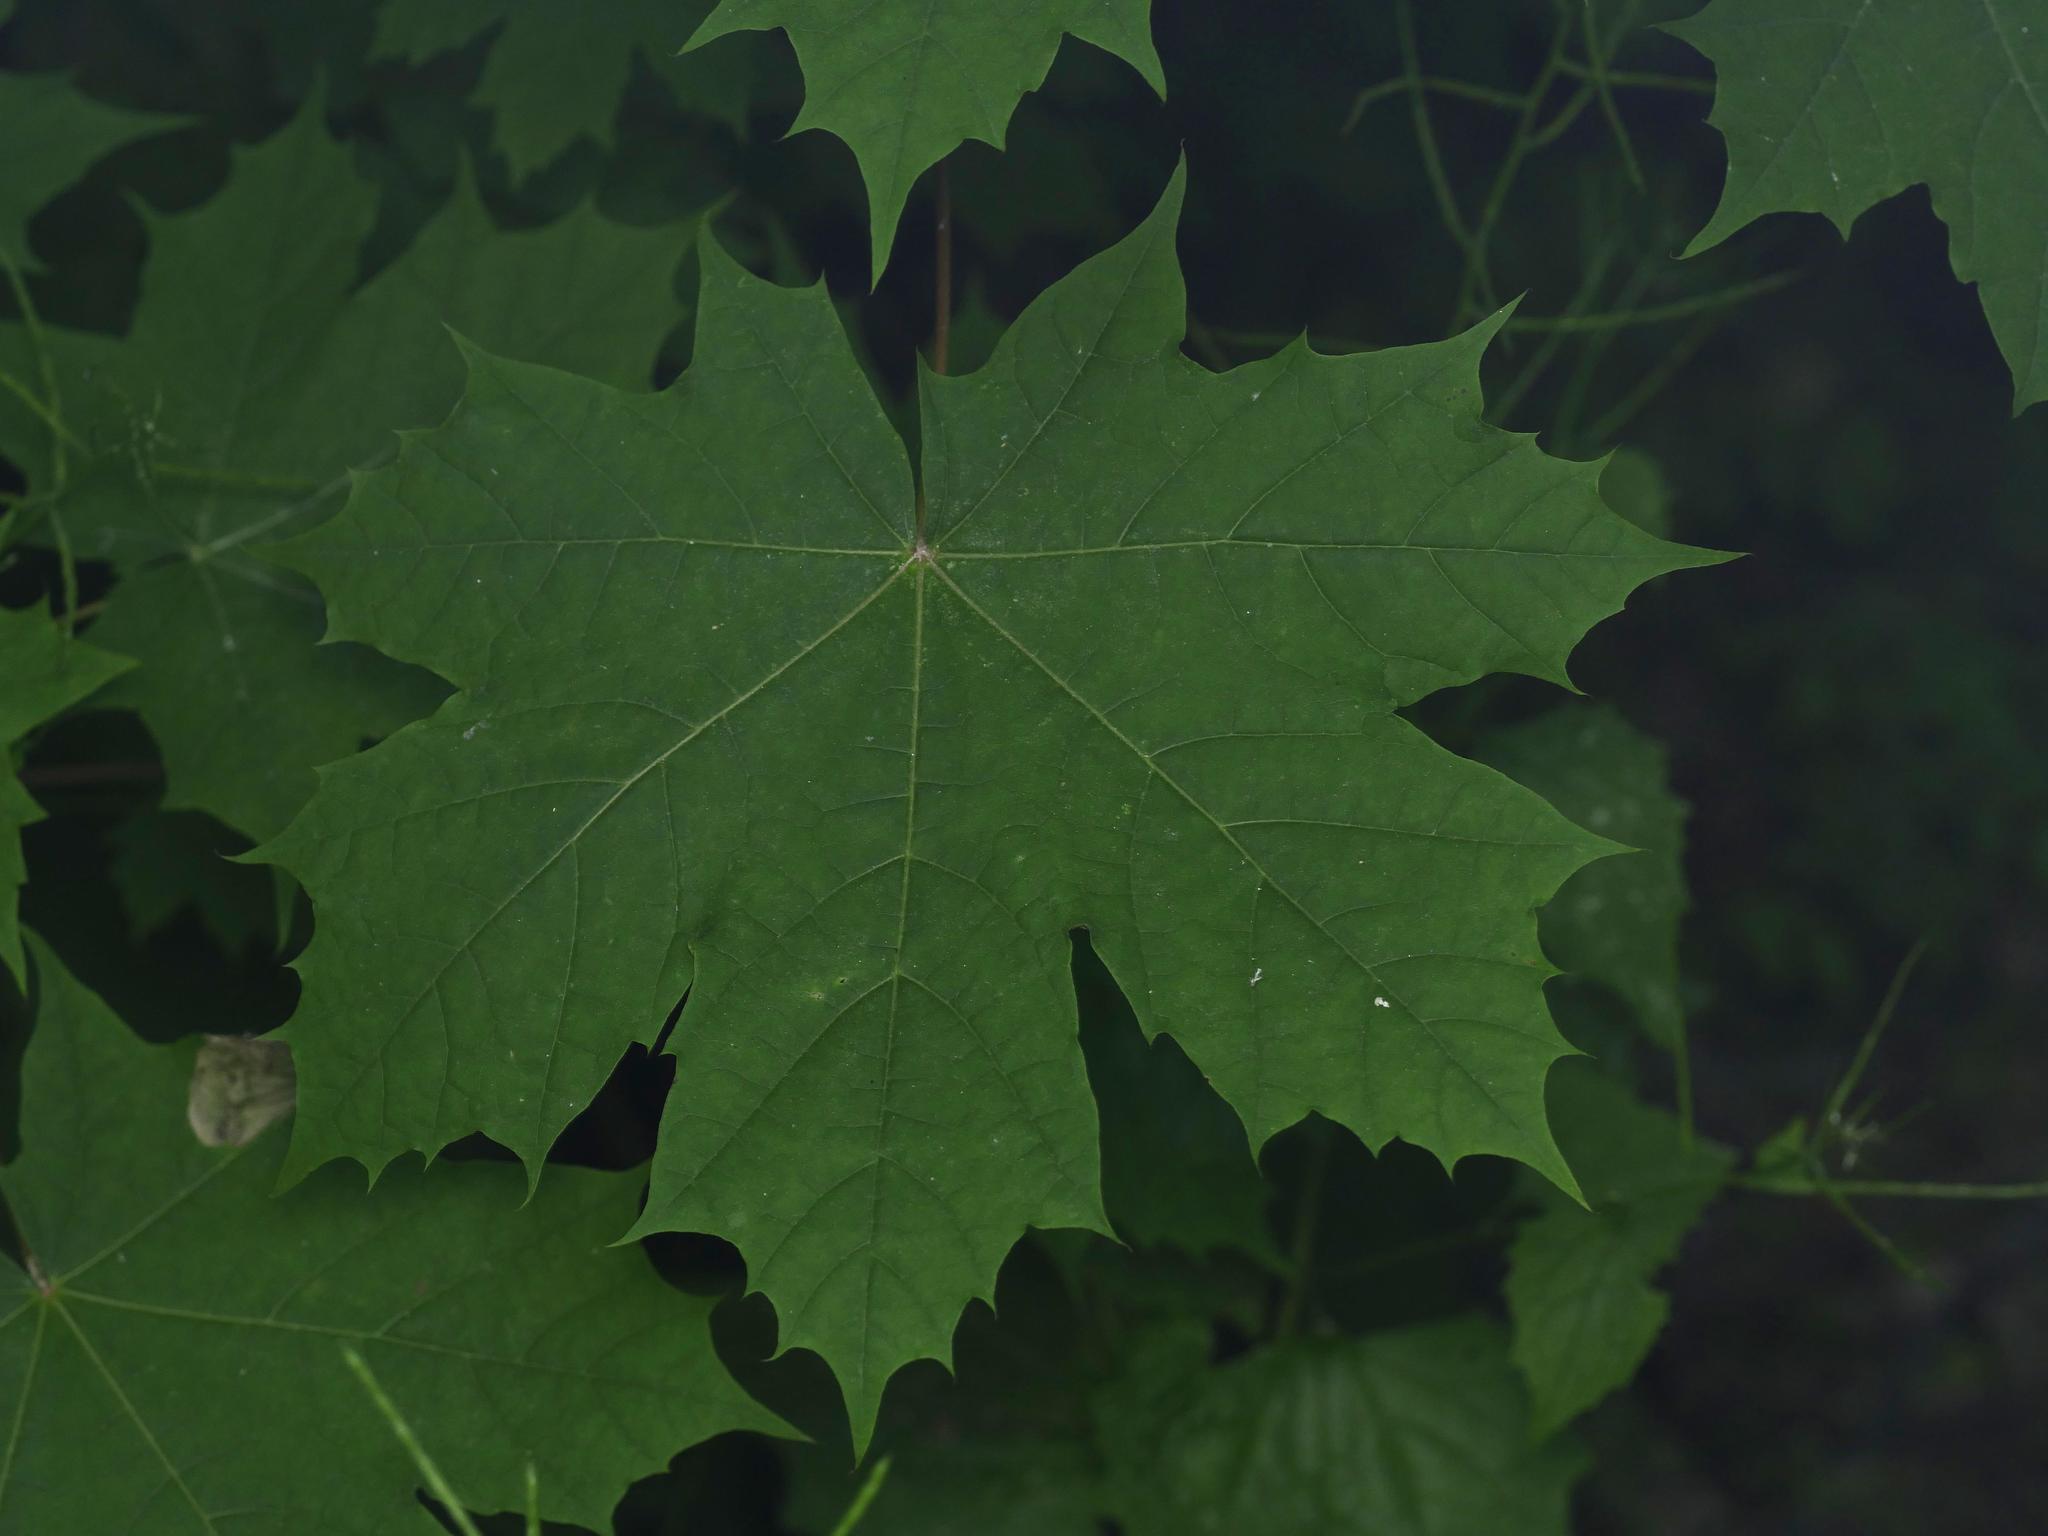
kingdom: Plantae
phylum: Tracheophyta
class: Magnoliopsida
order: Sapindales
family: Sapindaceae
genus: Acer
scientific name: Acer platanoides
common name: Norway maple
